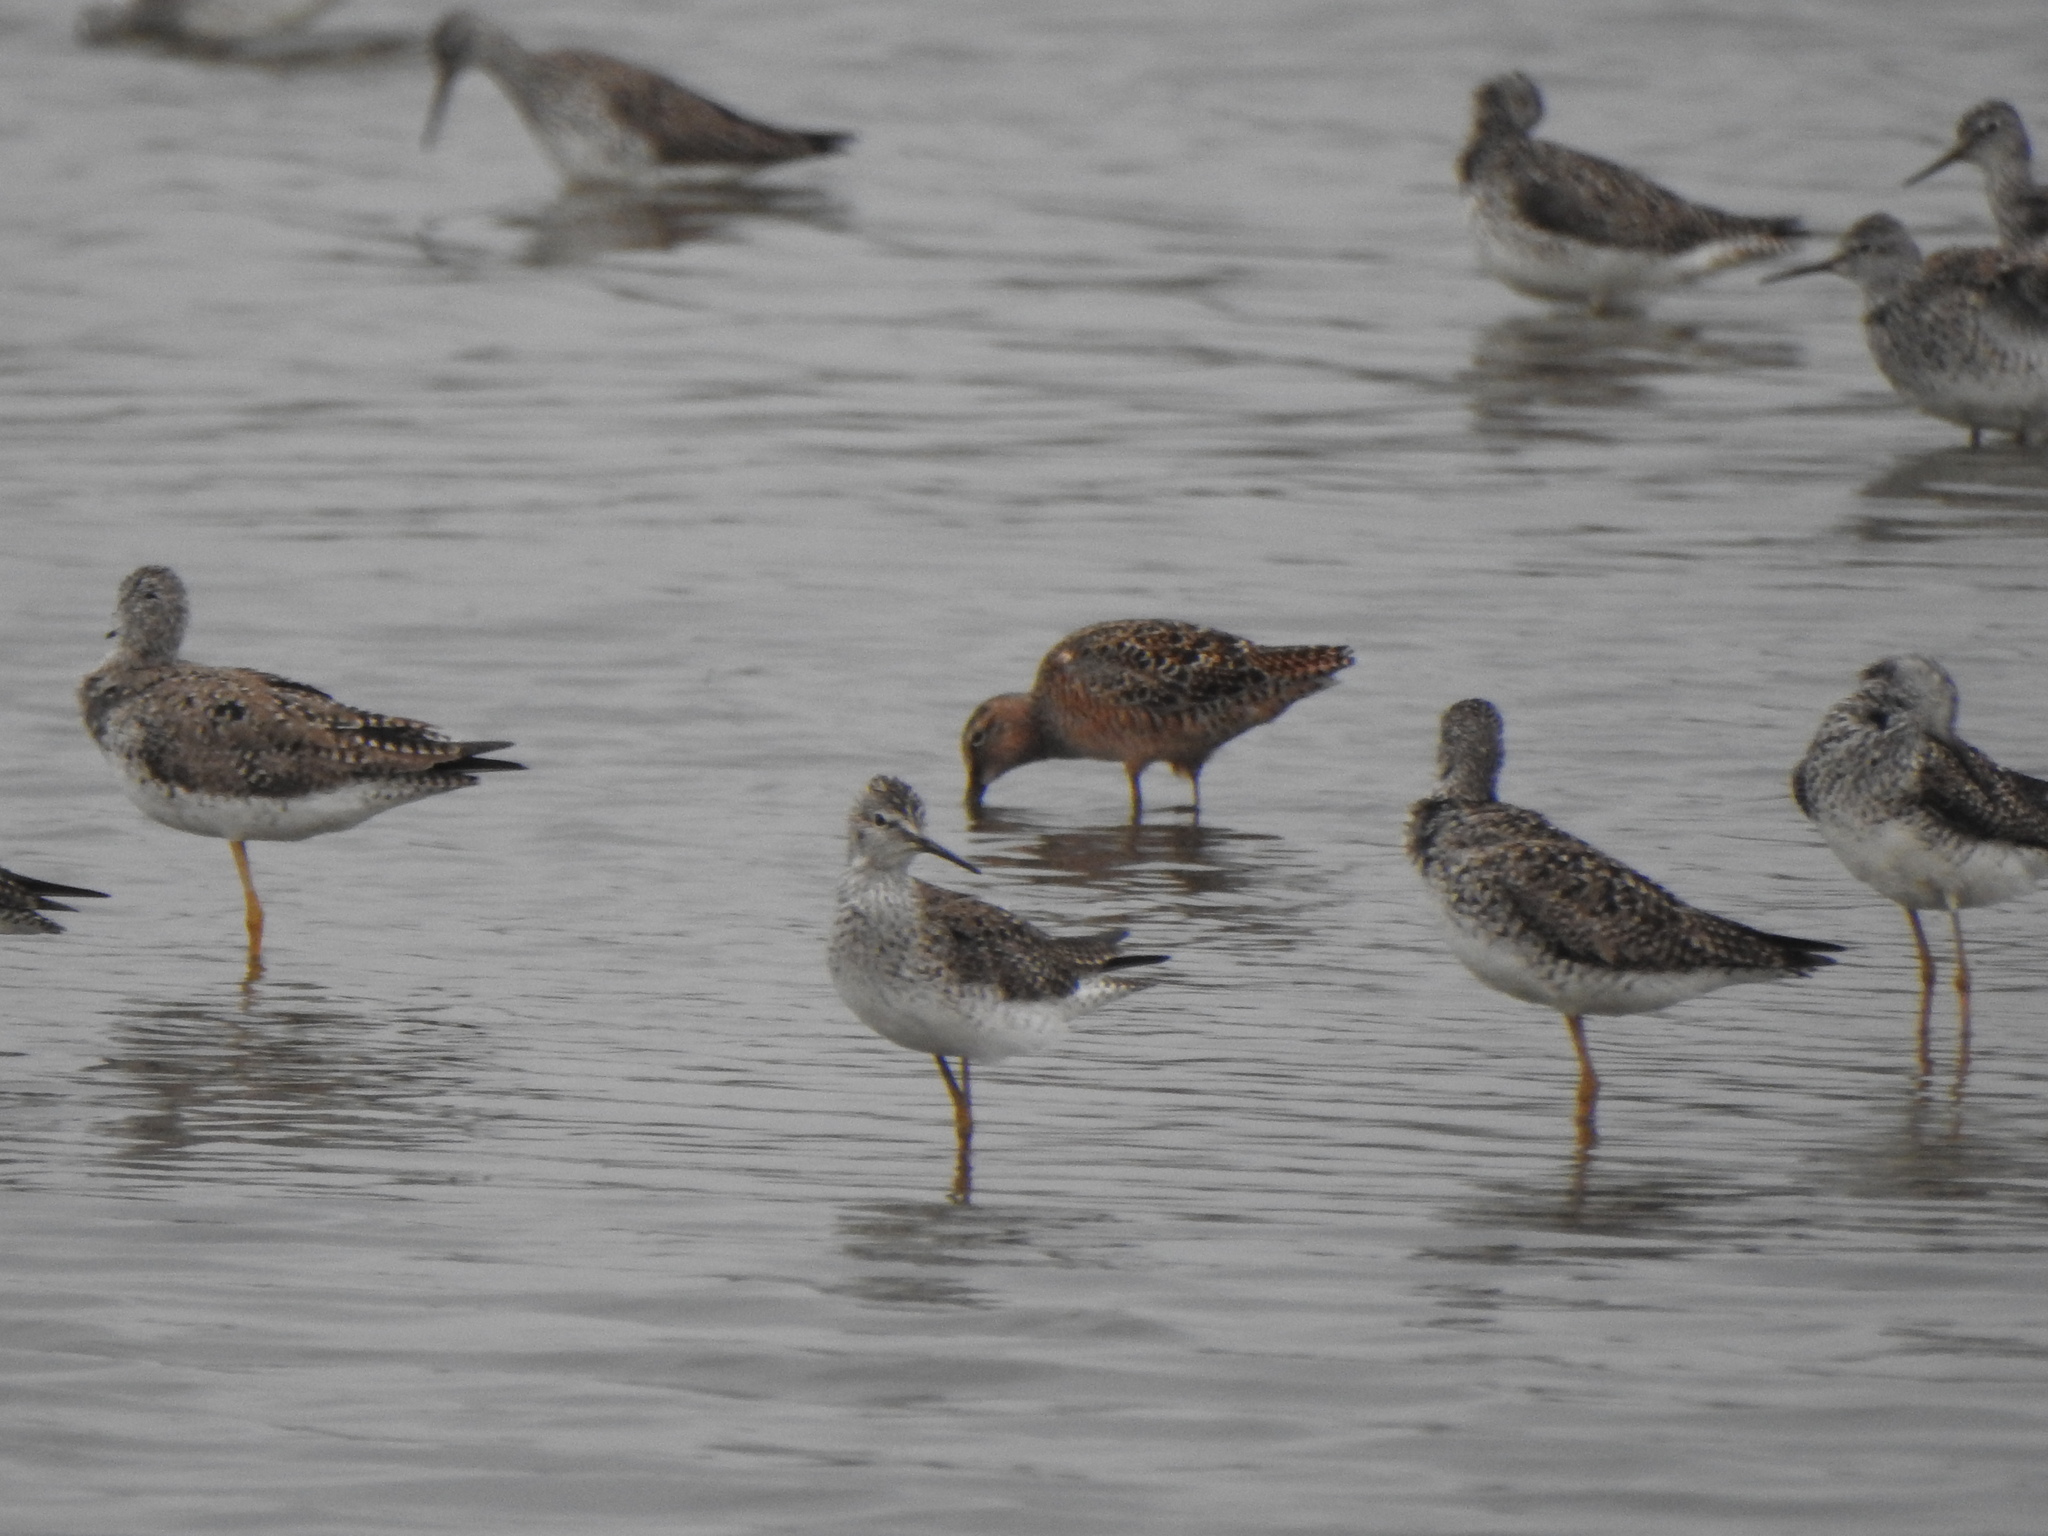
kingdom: Animalia
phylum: Chordata
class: Aves
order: Charadriiformes
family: Scolopacidae
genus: Limnodromus
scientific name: Limnodromus scolopaceus
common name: Long-billed dowitcher
